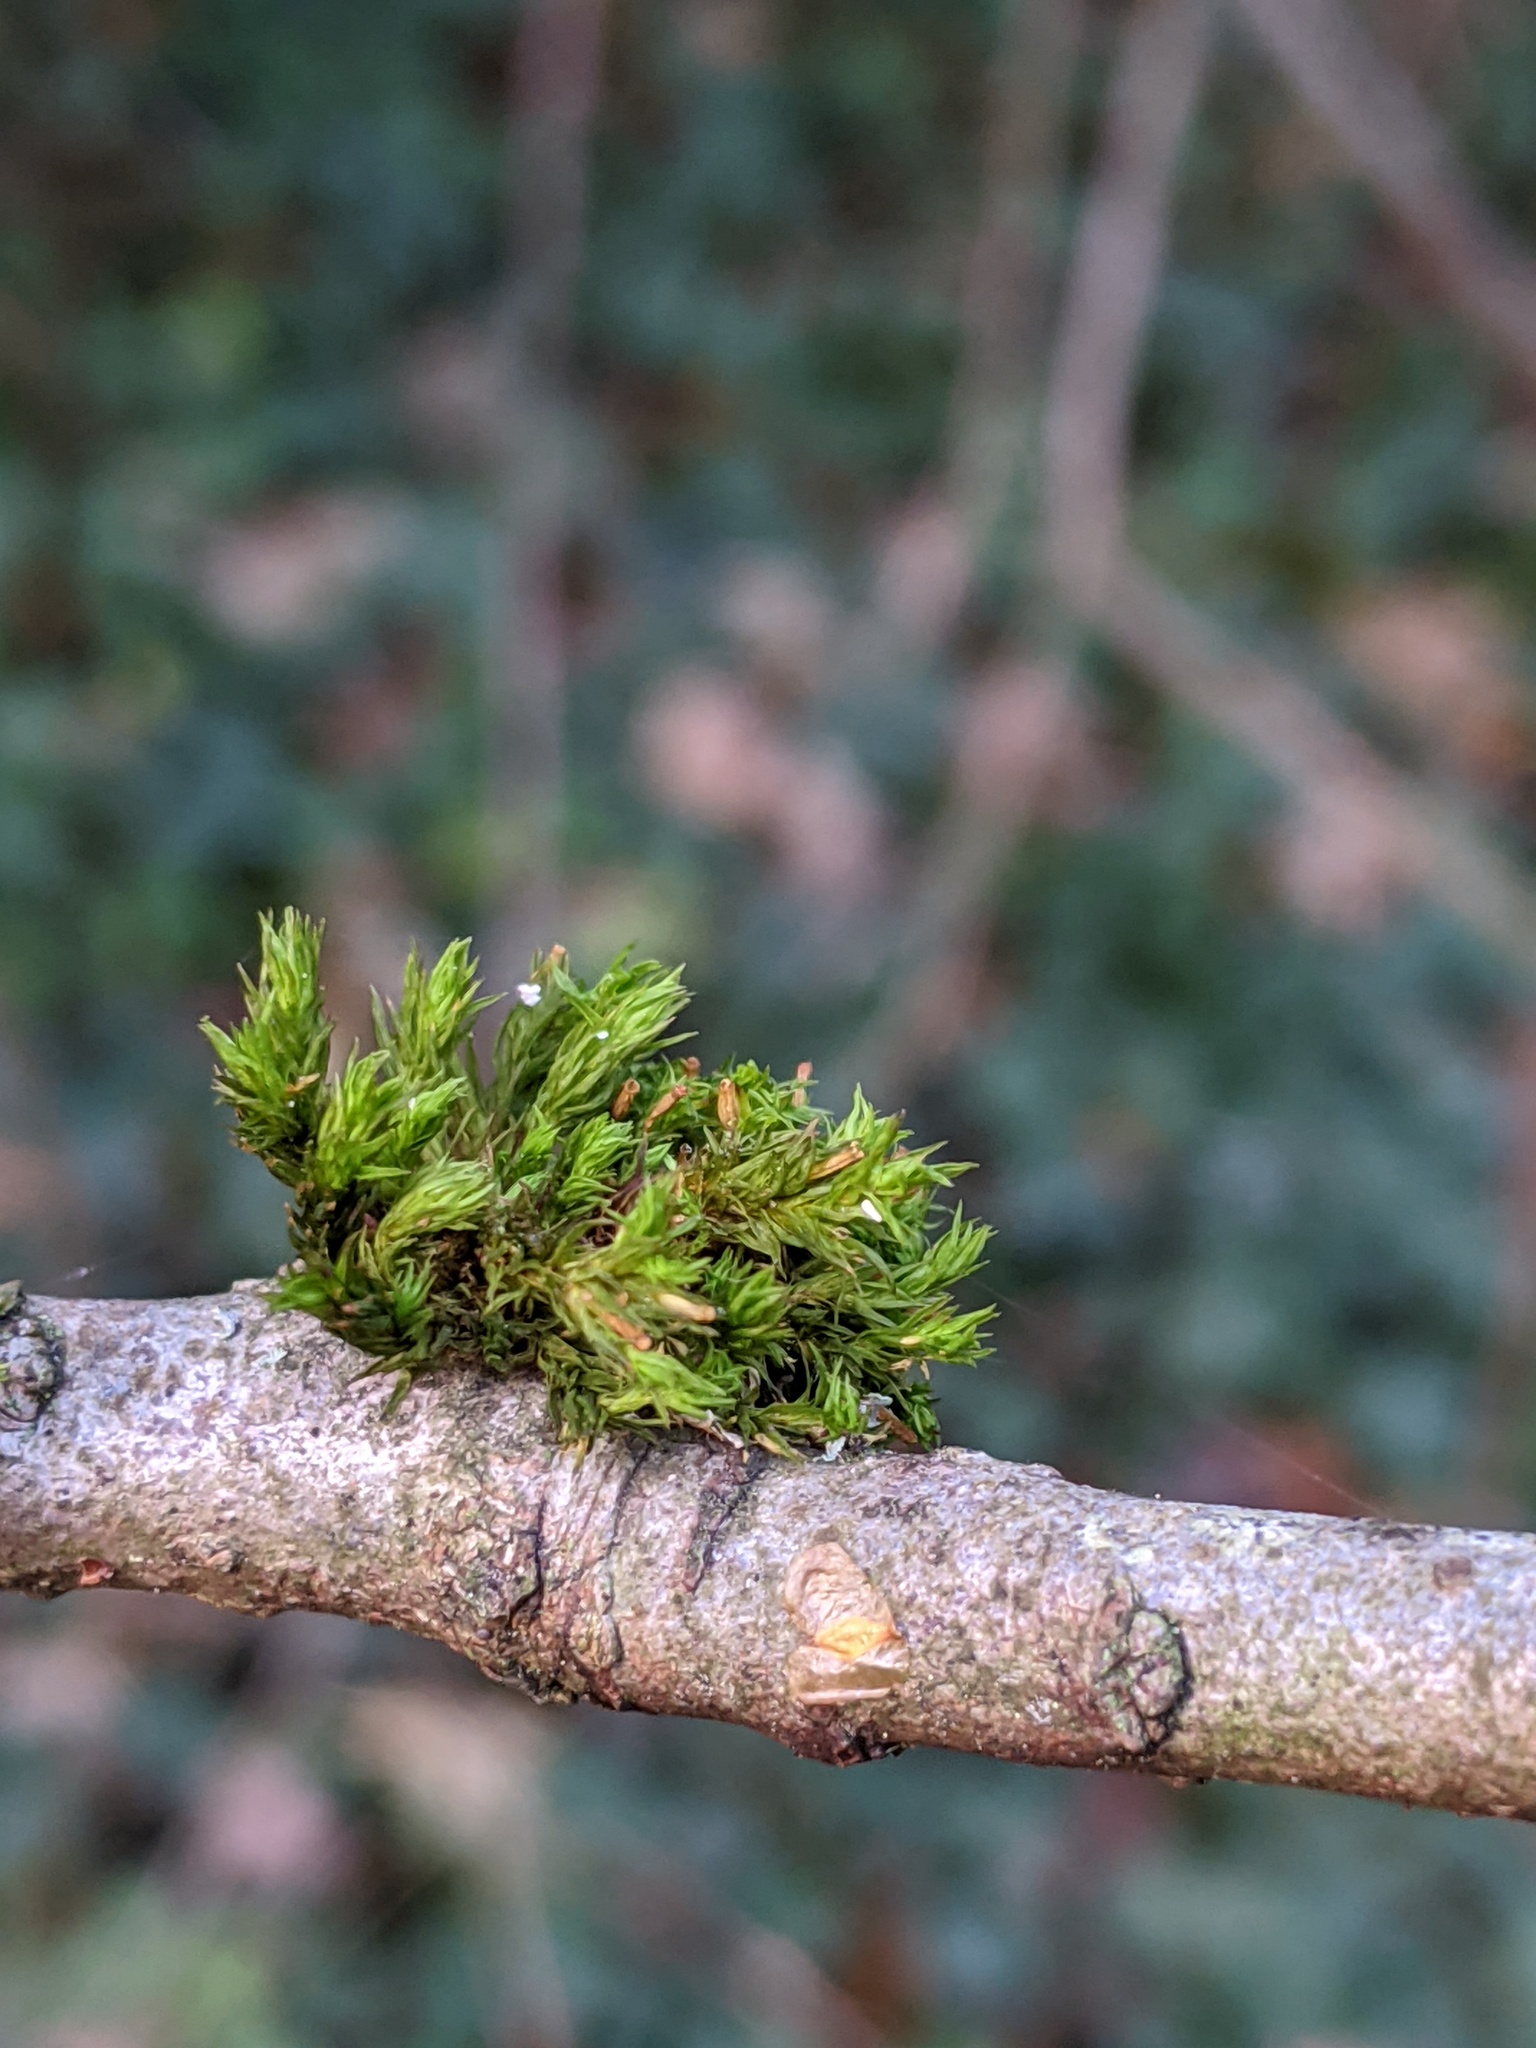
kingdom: Plantae
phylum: Bryophyta
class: Bryopsida
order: Orthotrichales
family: Orthotrichaceae
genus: Lewinskya
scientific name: Lewinskya affinis
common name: Wood bristle-moss
